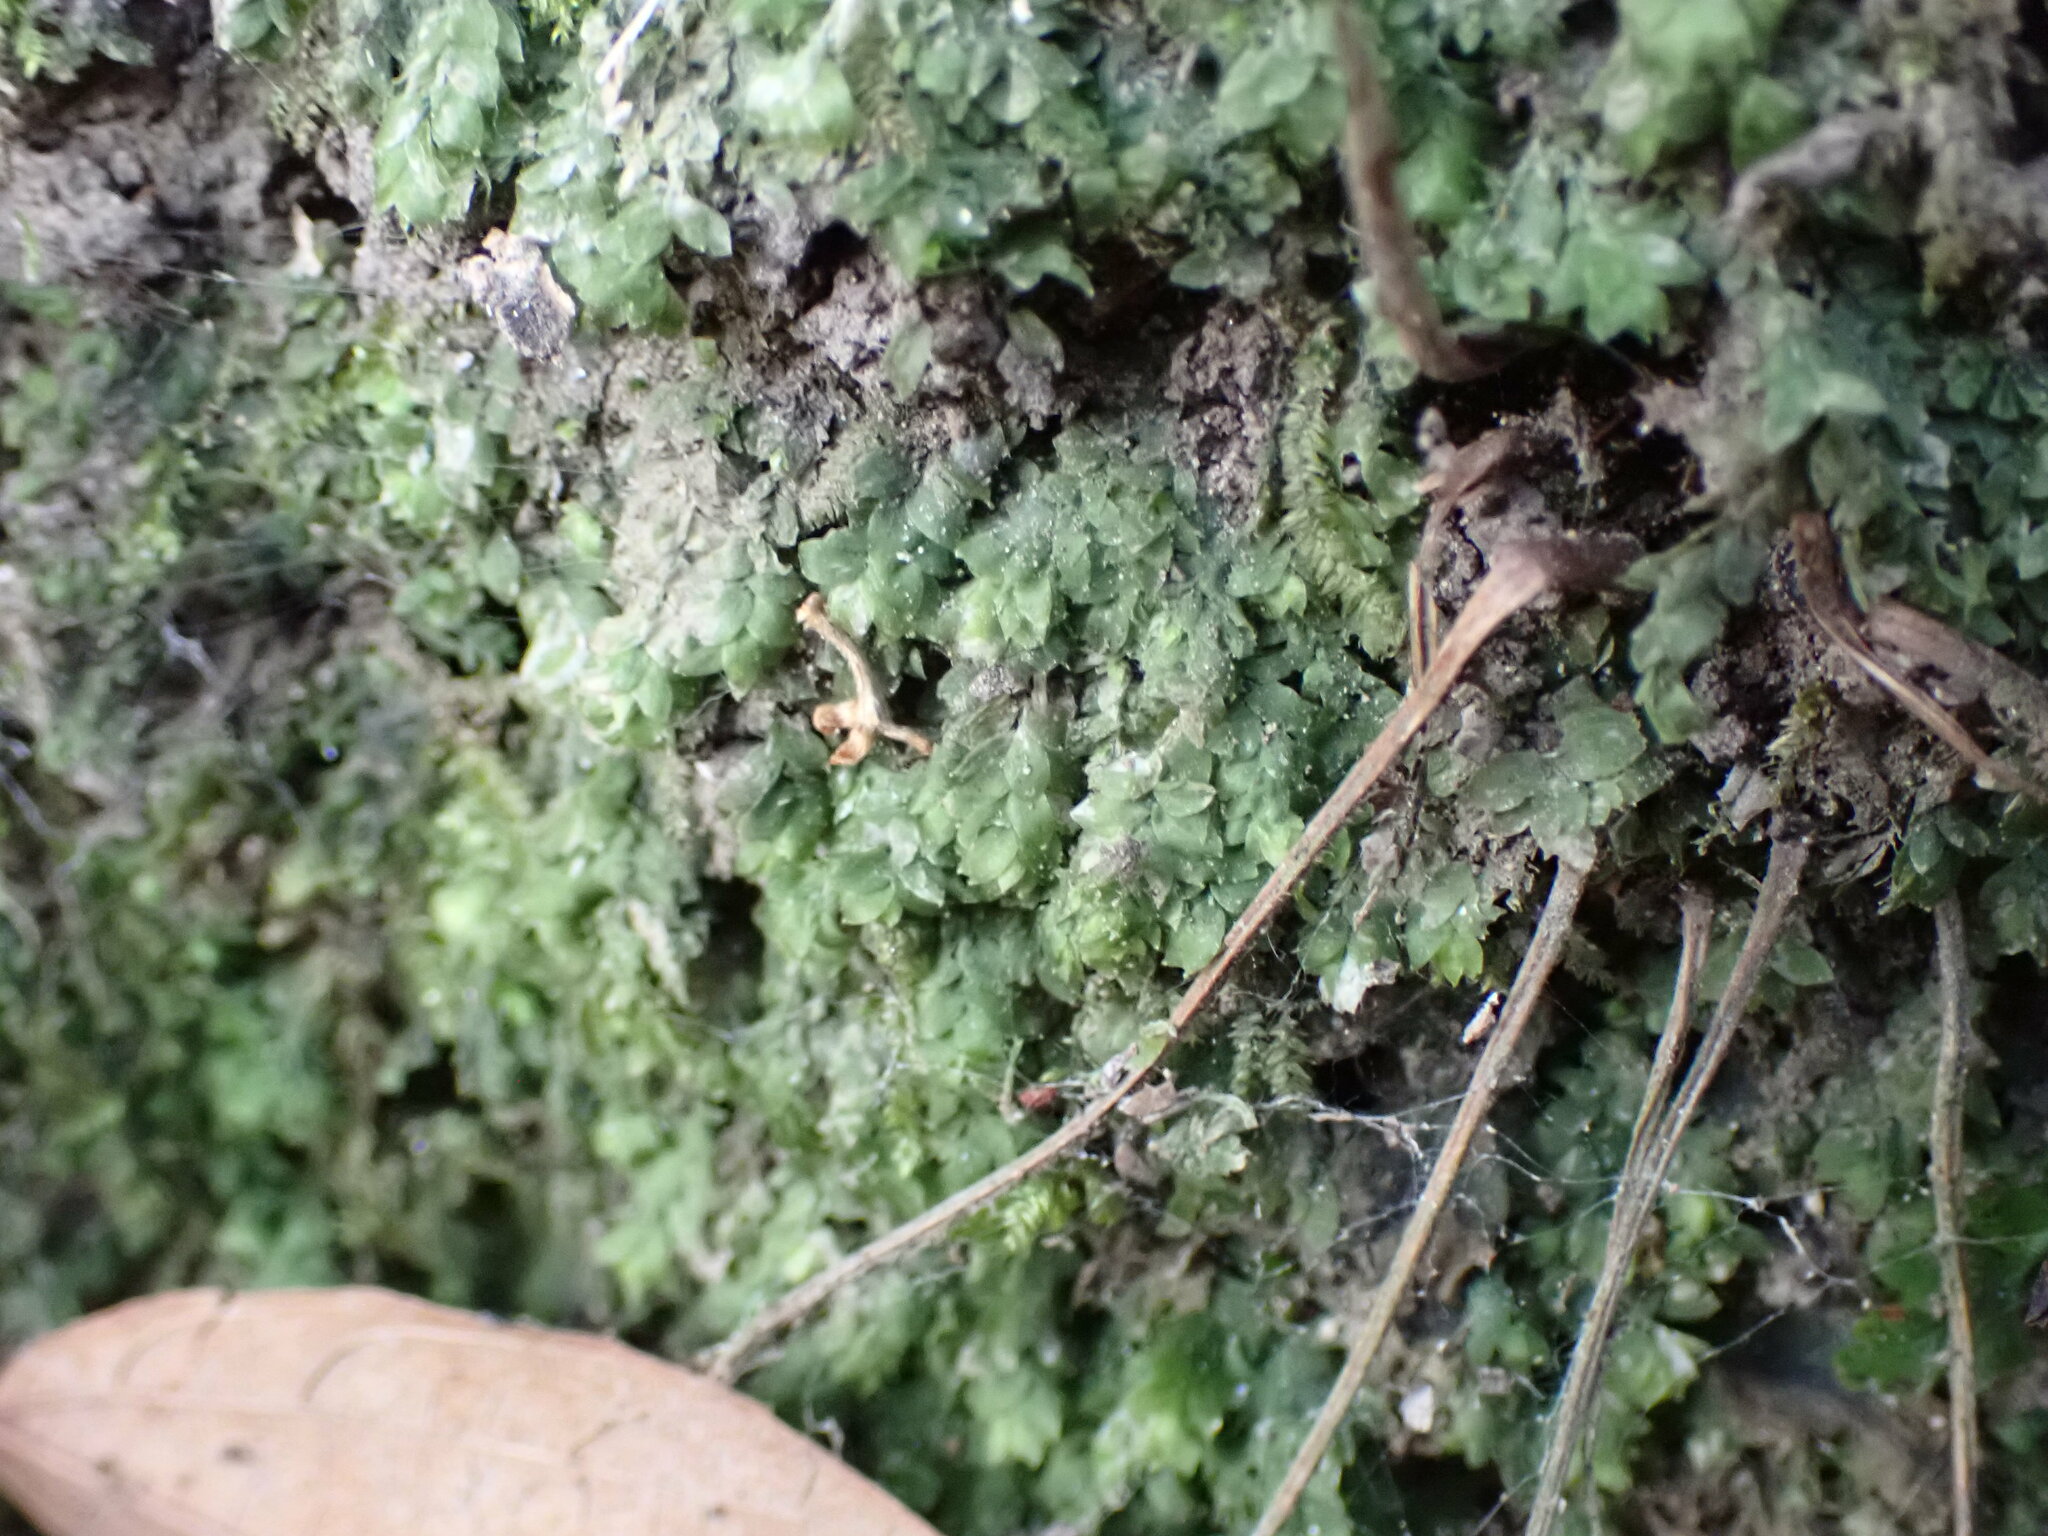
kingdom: Plantae
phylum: Bryophyta
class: Bryopsida
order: Hookeriales
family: Hookeriaceae
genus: Hookeria
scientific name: Hookeria acutifolia
